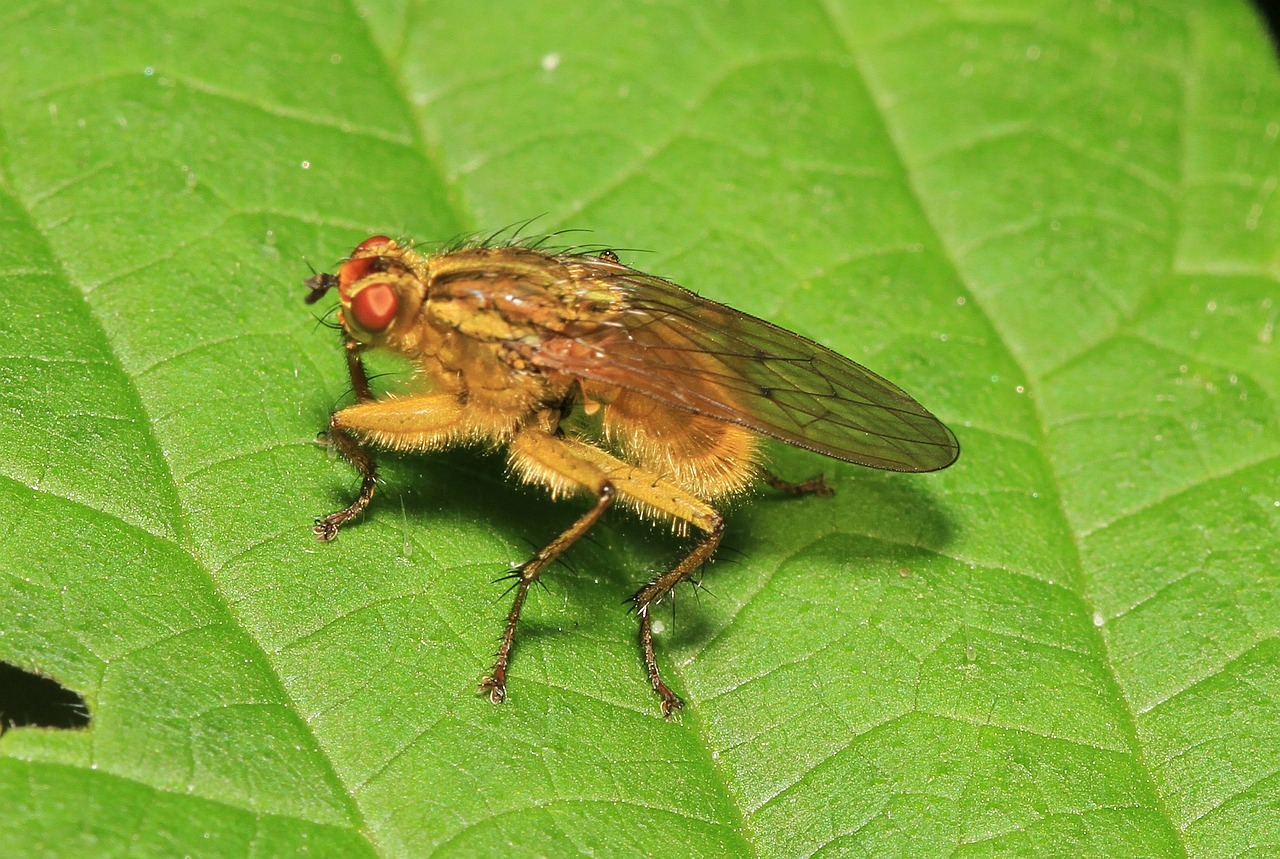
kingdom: Animalia
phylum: Arthropoda
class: Insecta
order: Diptera
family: Scathophagidae
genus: Scathophaga
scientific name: Scathophaga stercoraria
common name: Yellow dung fly
